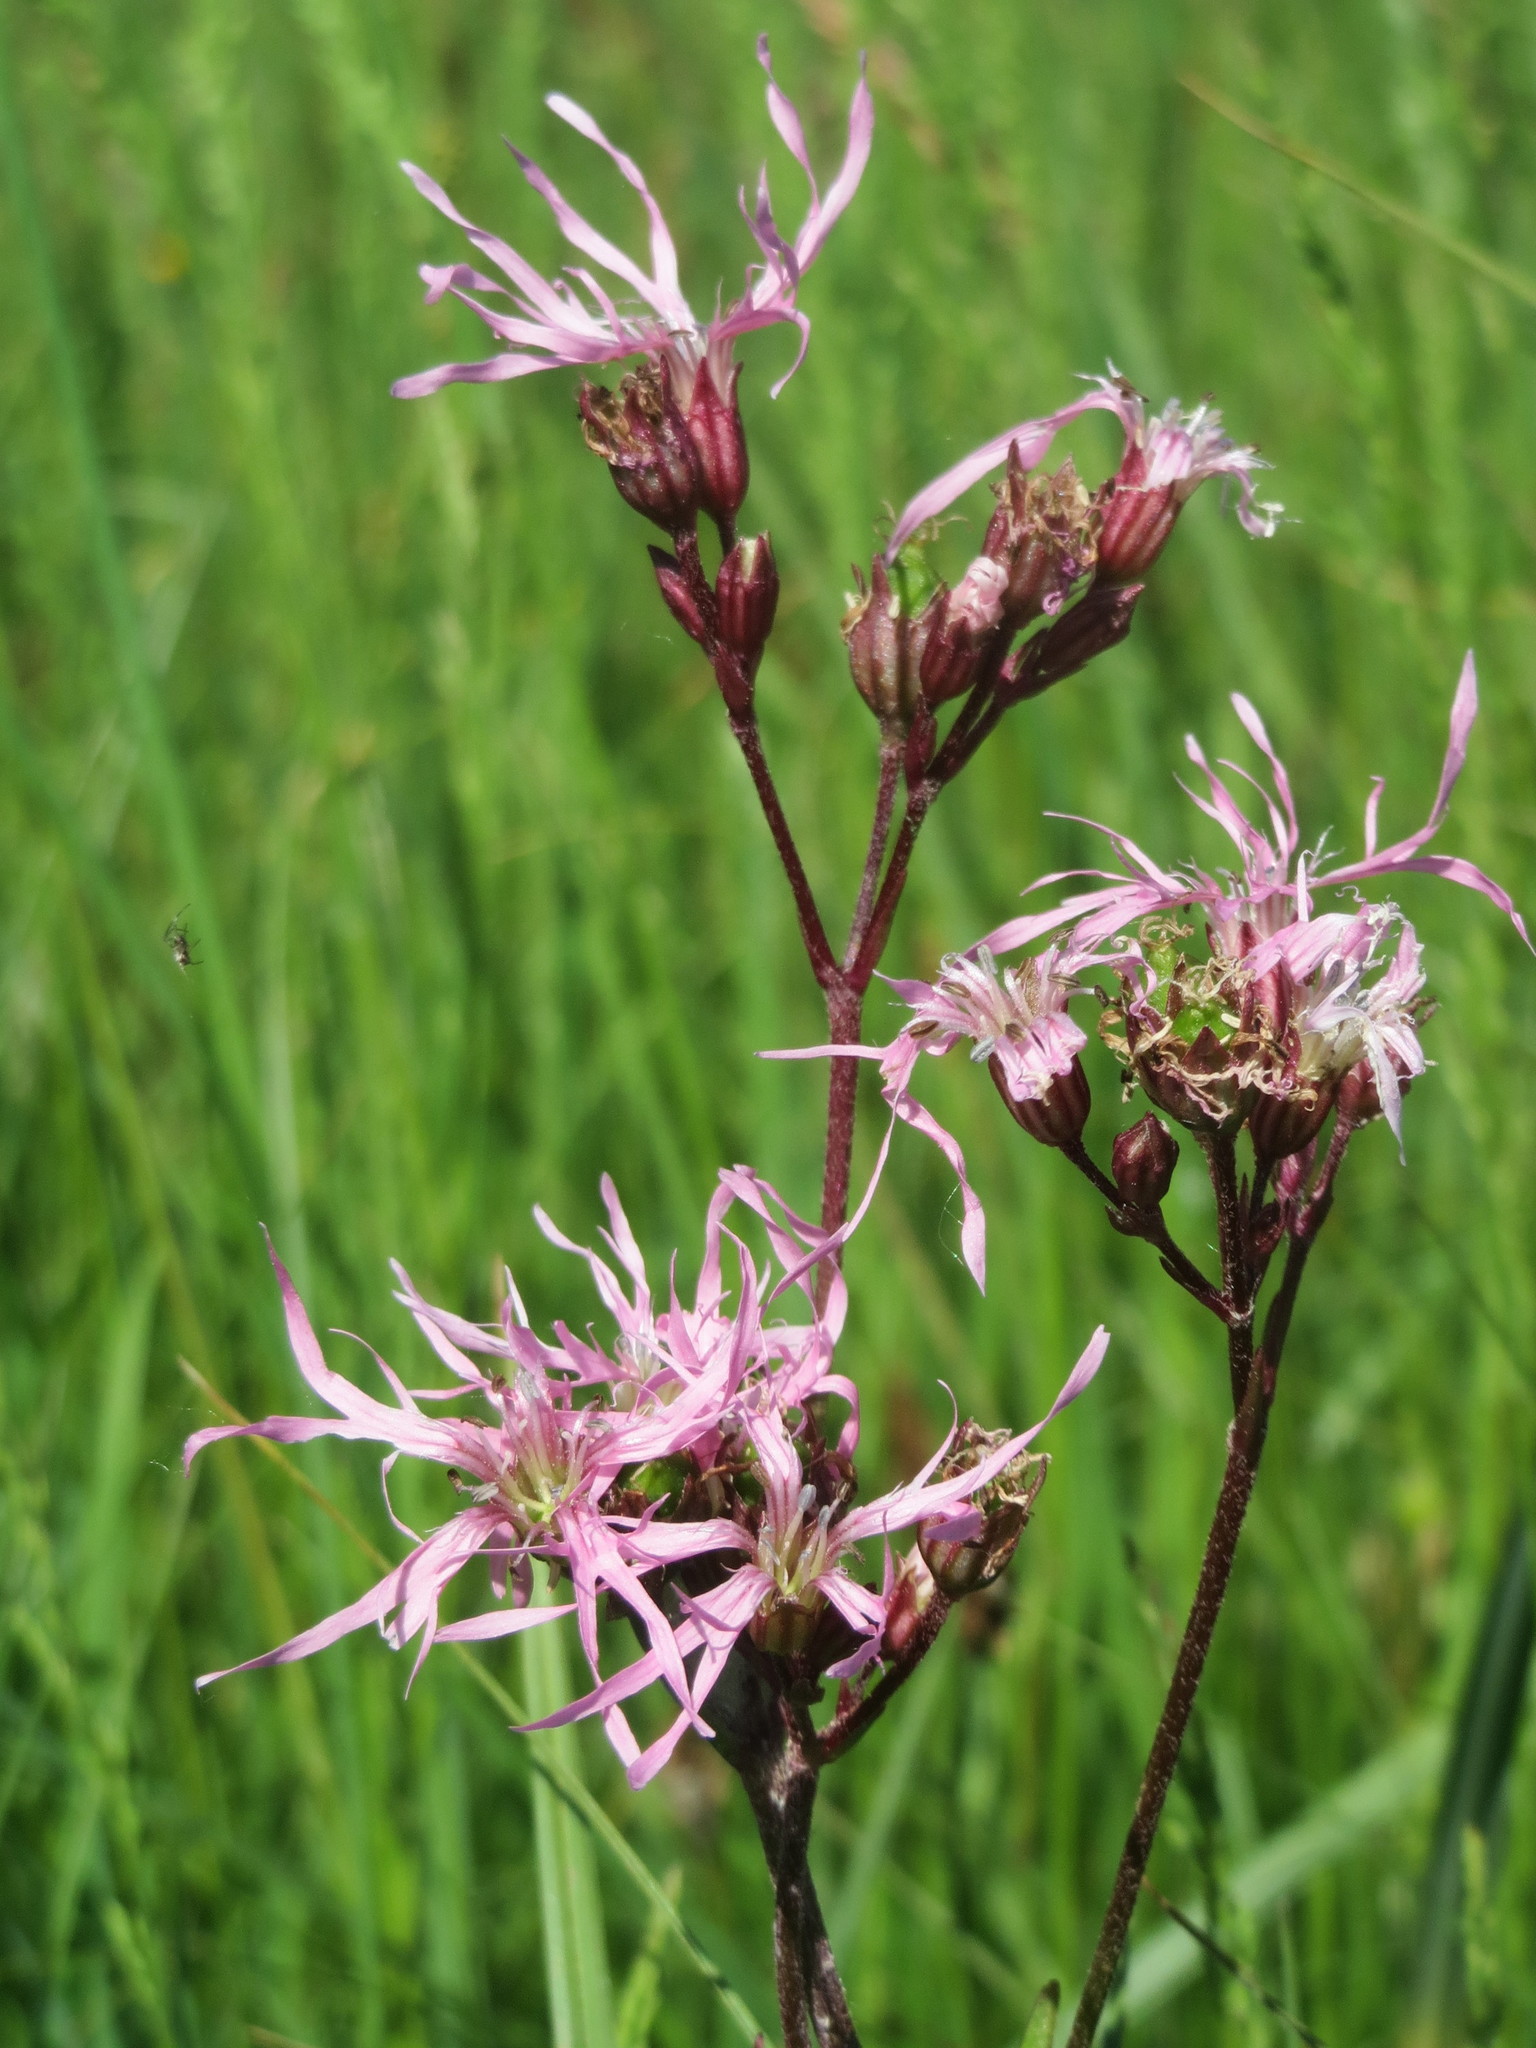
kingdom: Plantae
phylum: Tracheophyta
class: Magnoliopsida
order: Caryophyllales
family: Caryophyllaceae
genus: Silene
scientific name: Silene flos-cuculi
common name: Ragged-robin
